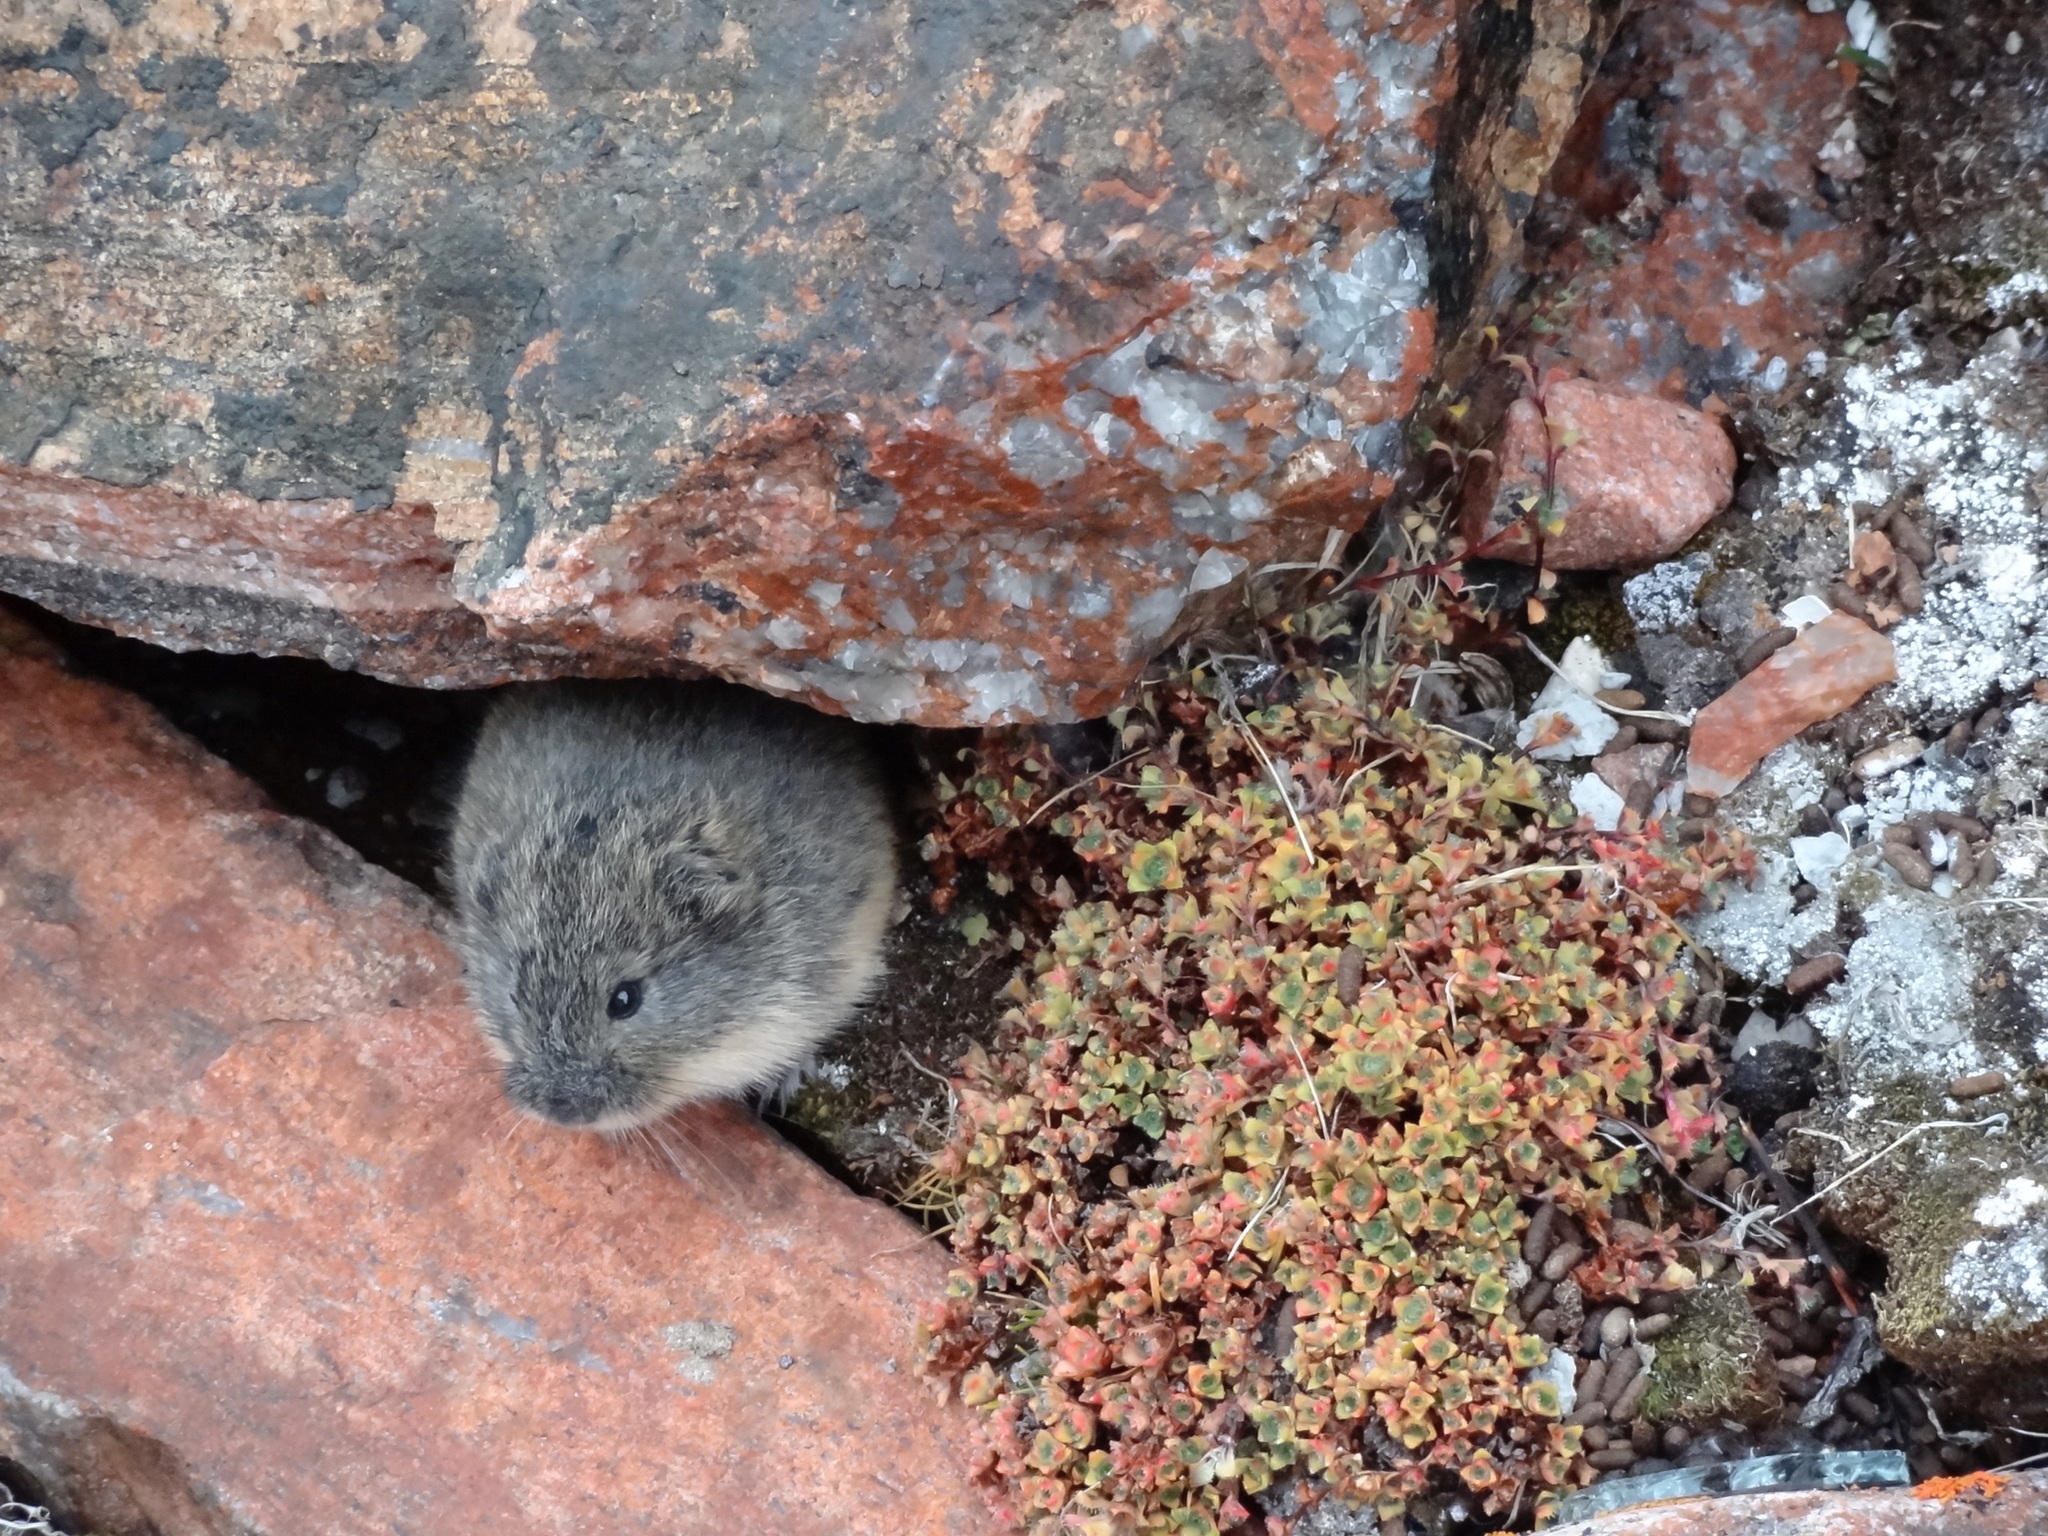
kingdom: Animalia
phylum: Chordata
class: Mammalia
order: Rodentia
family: Cricetidae
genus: Lemmus
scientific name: Lemmus trimucronatus
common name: Brown lemming
